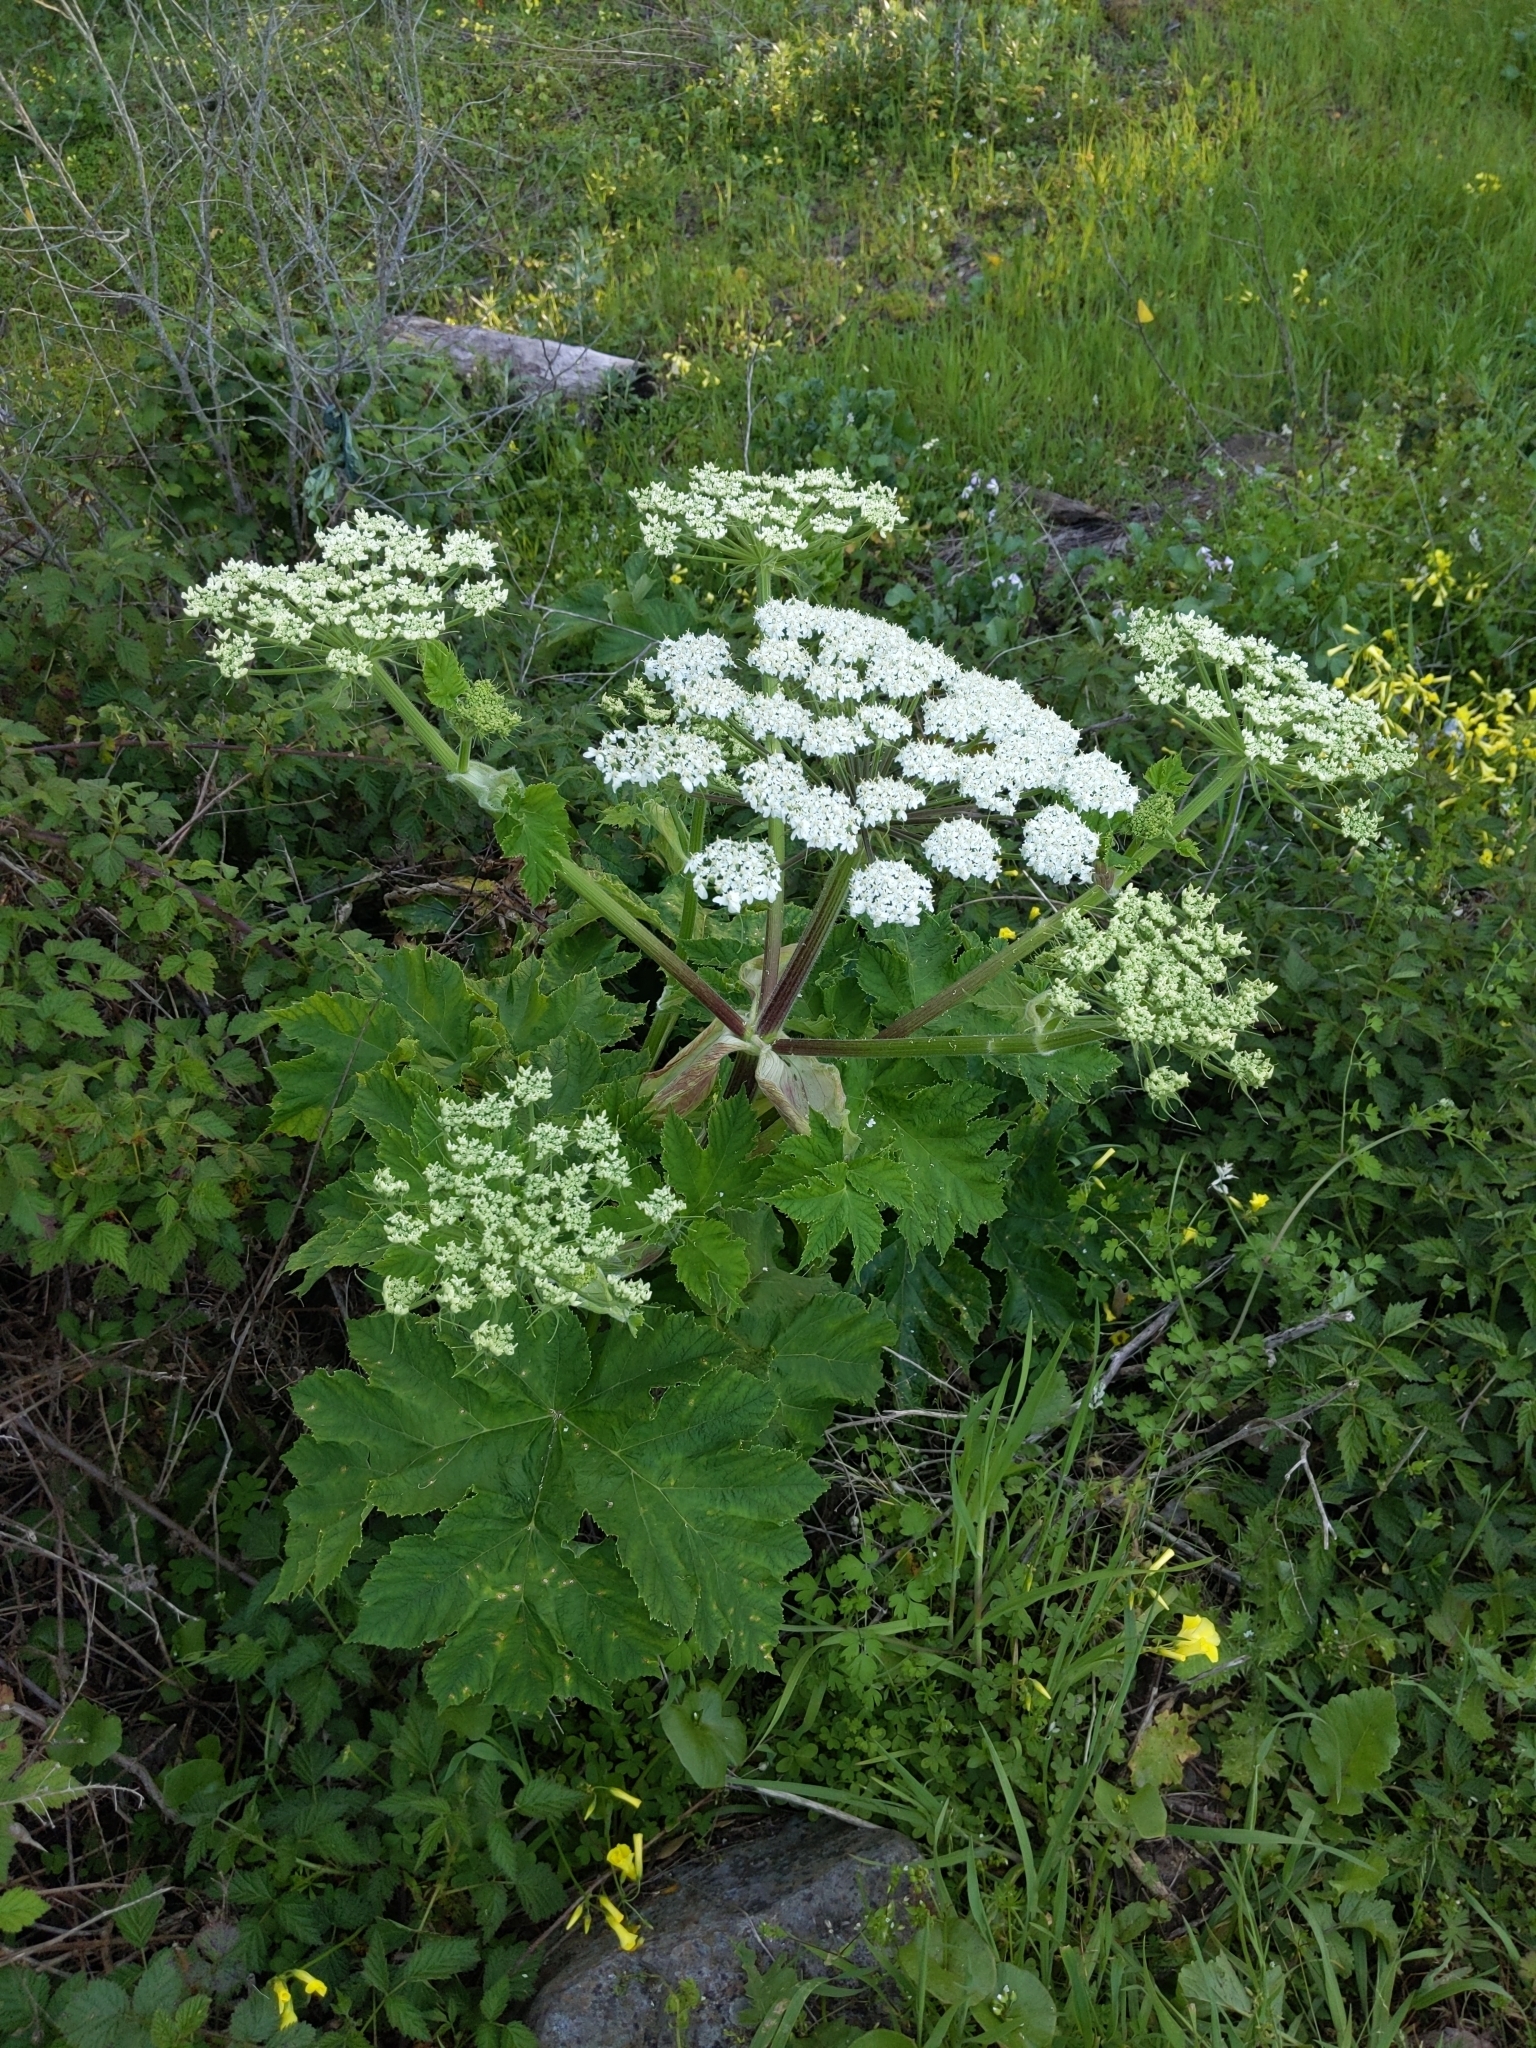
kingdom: Plantae
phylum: Tracheophyta
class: Magnoliopsida
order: Apiales
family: Apiaceae
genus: Heracleum
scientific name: Heracleum maximum
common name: American cow parsnip
